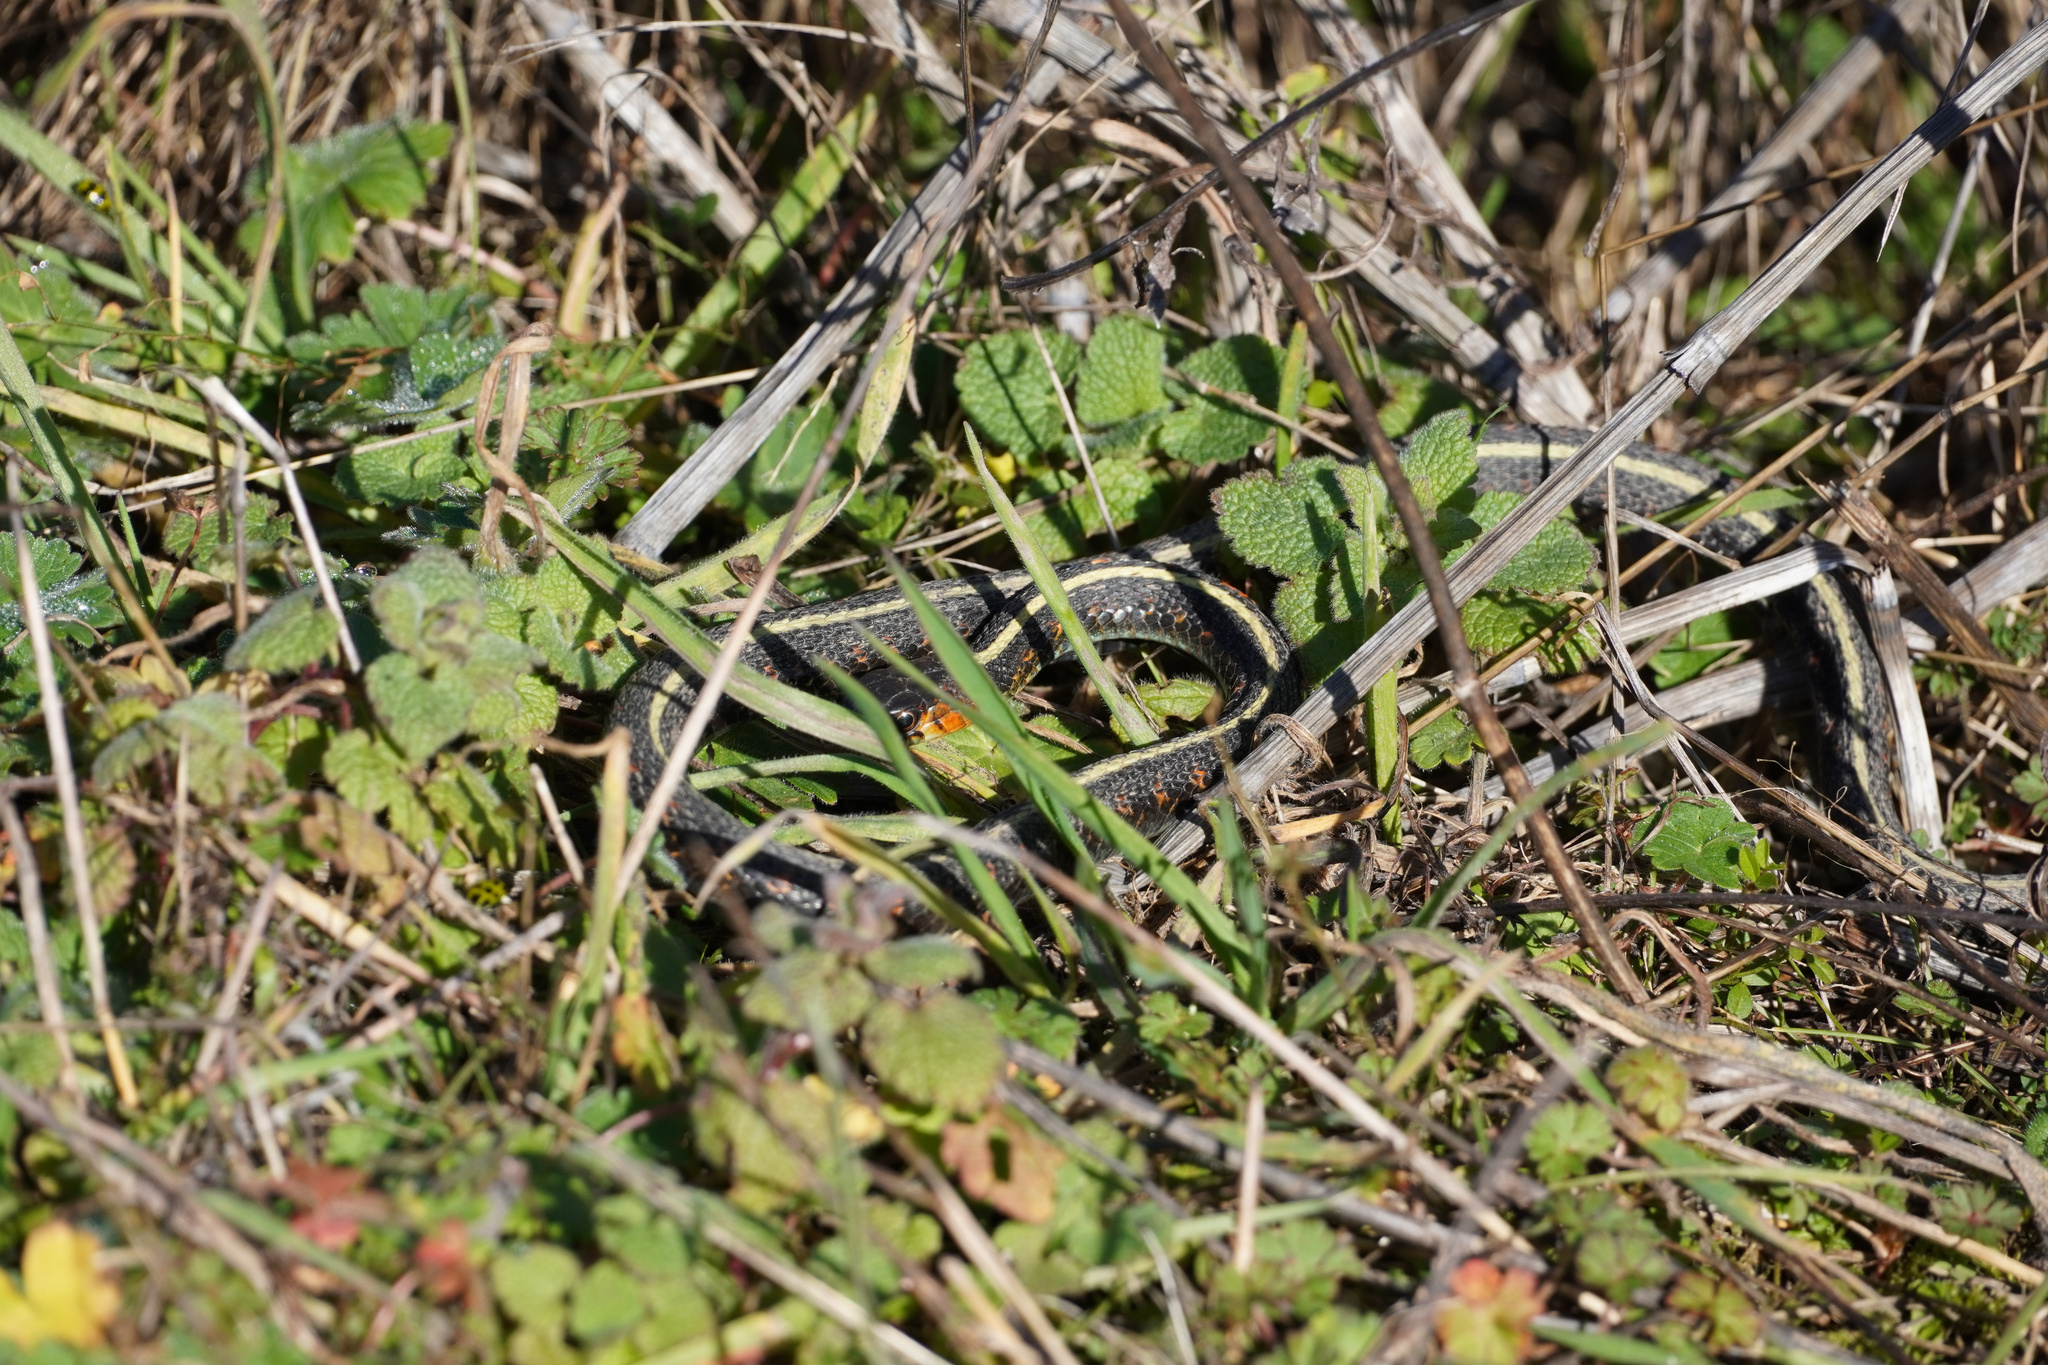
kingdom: Animalia
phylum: Chordata
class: Squamata
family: Colubridae
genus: Thamnophis
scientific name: Thamnophis sirtalis
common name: Common garter snake
